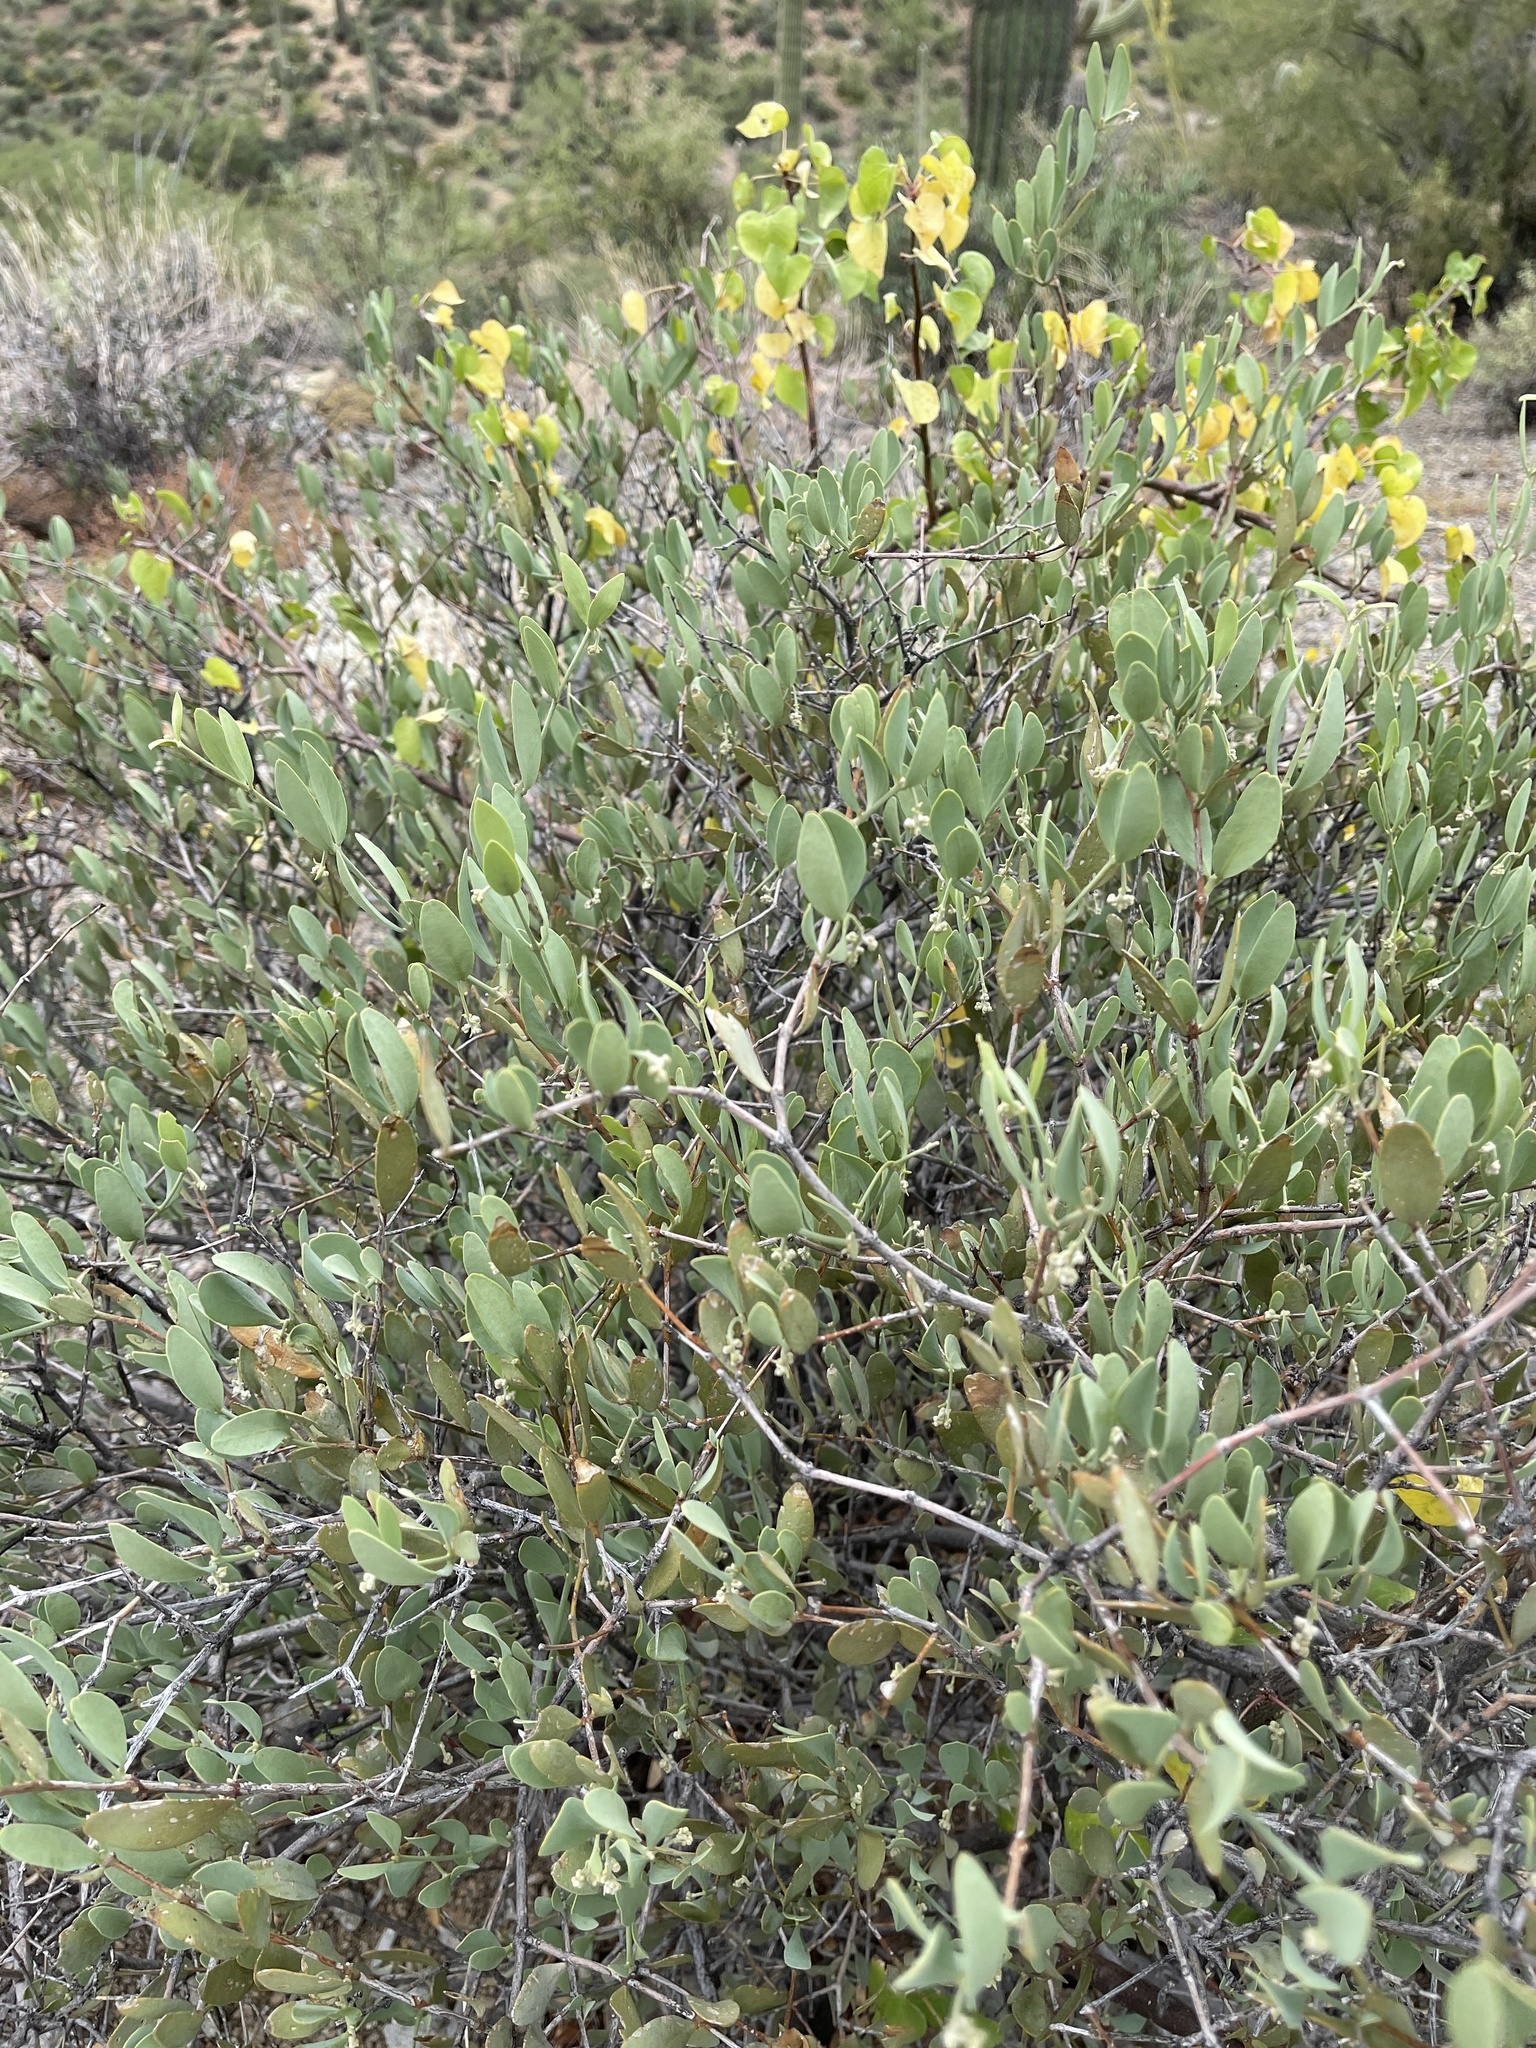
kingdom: Plantae
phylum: Tracheophyta
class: Magnoliopsida
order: Caryophyllales
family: Simmondsiaceae
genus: Simmondsia
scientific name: Simmondsia chinensis
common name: Jojoba
